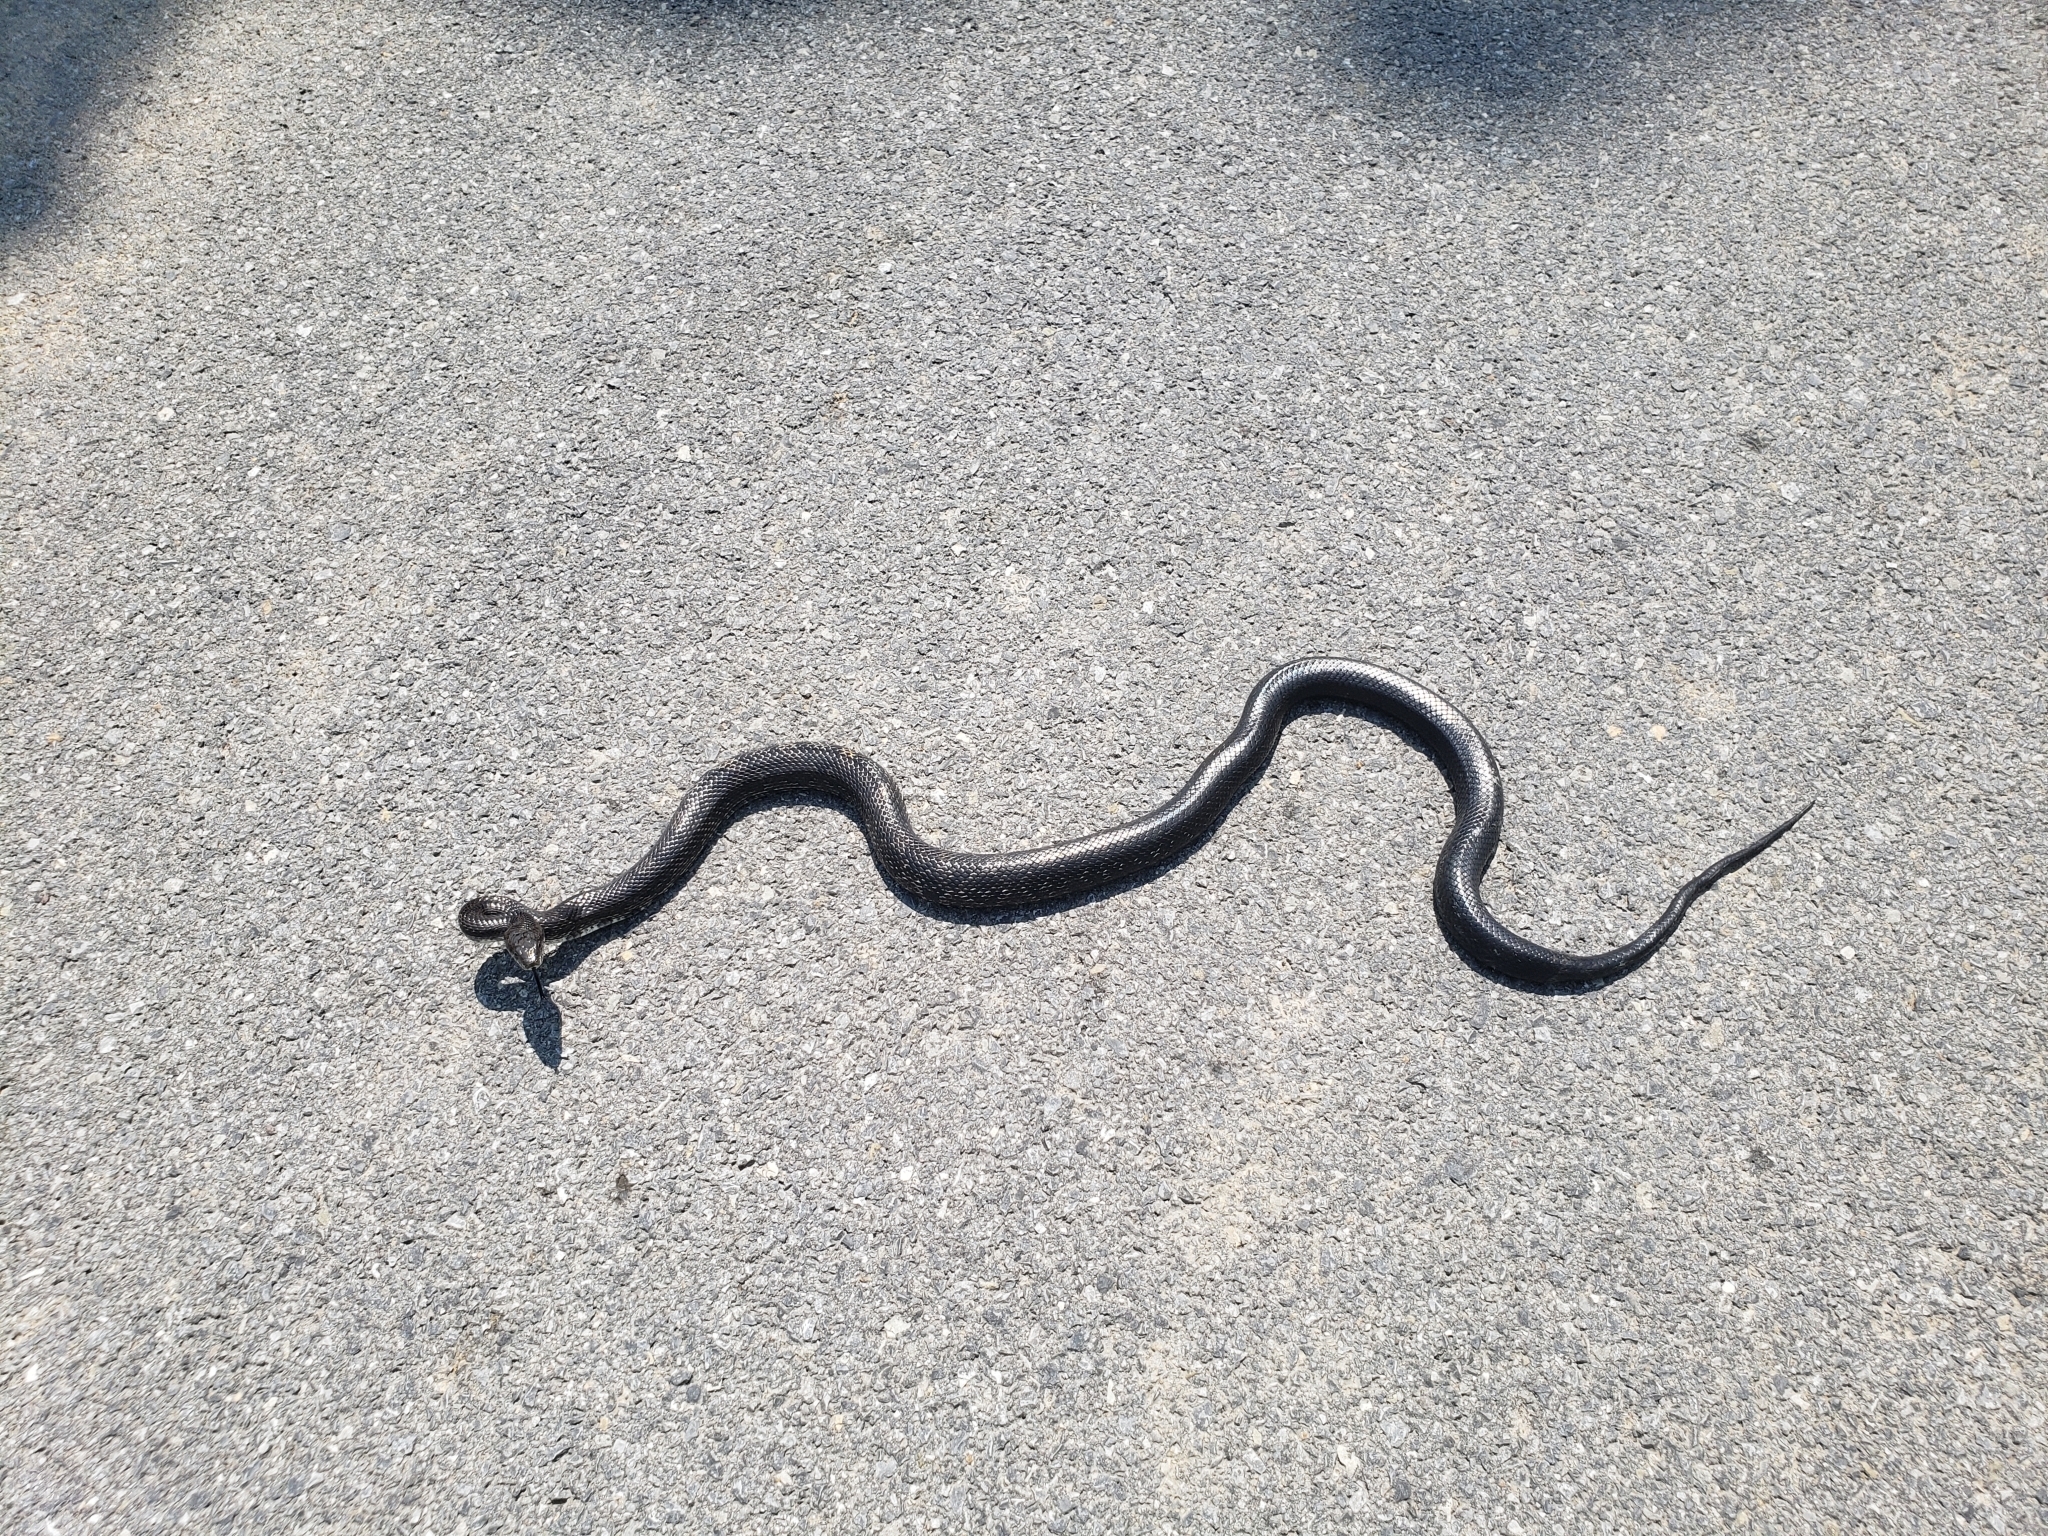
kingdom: Animalia
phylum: Chordata
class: Squamata
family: Colubridae
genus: Pantherophis
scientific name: Pantherophis alleghaniensis
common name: Eastern rat snake
